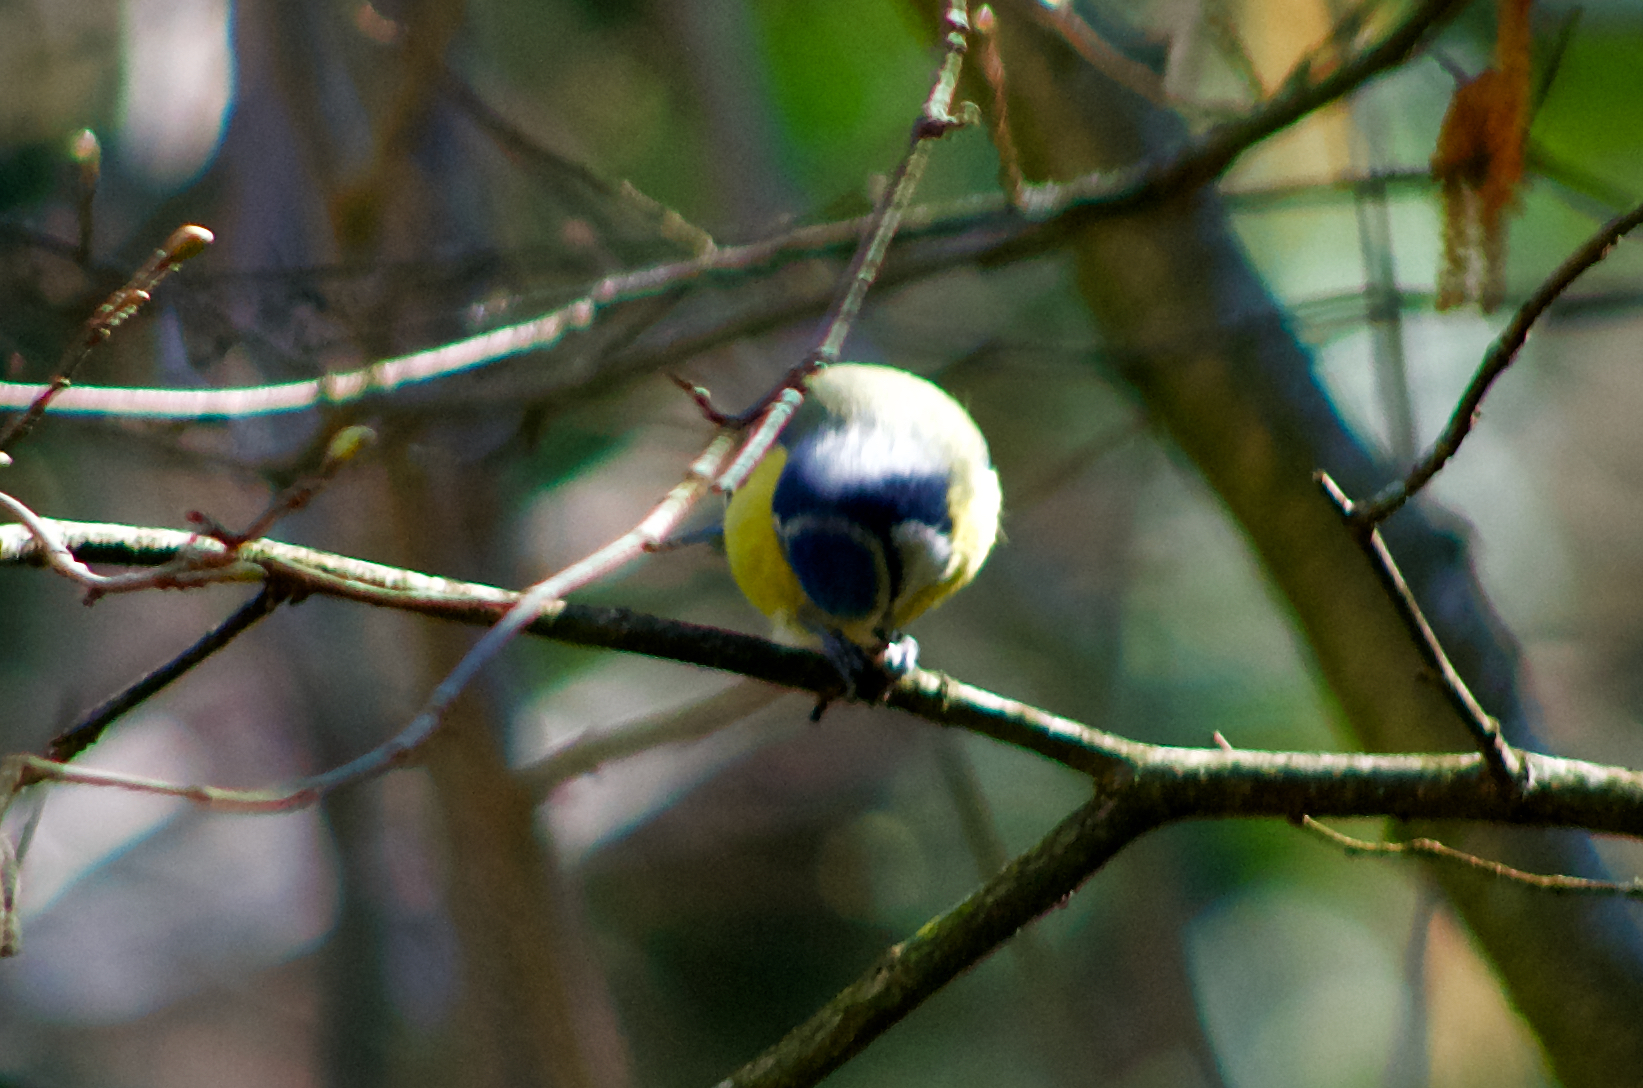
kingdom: Animalia
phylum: Chordata
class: Aves
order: Passeriformes
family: Paridae
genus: Cyanistes
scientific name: Cyanistes caeruleus
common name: Eurasian blue tit
